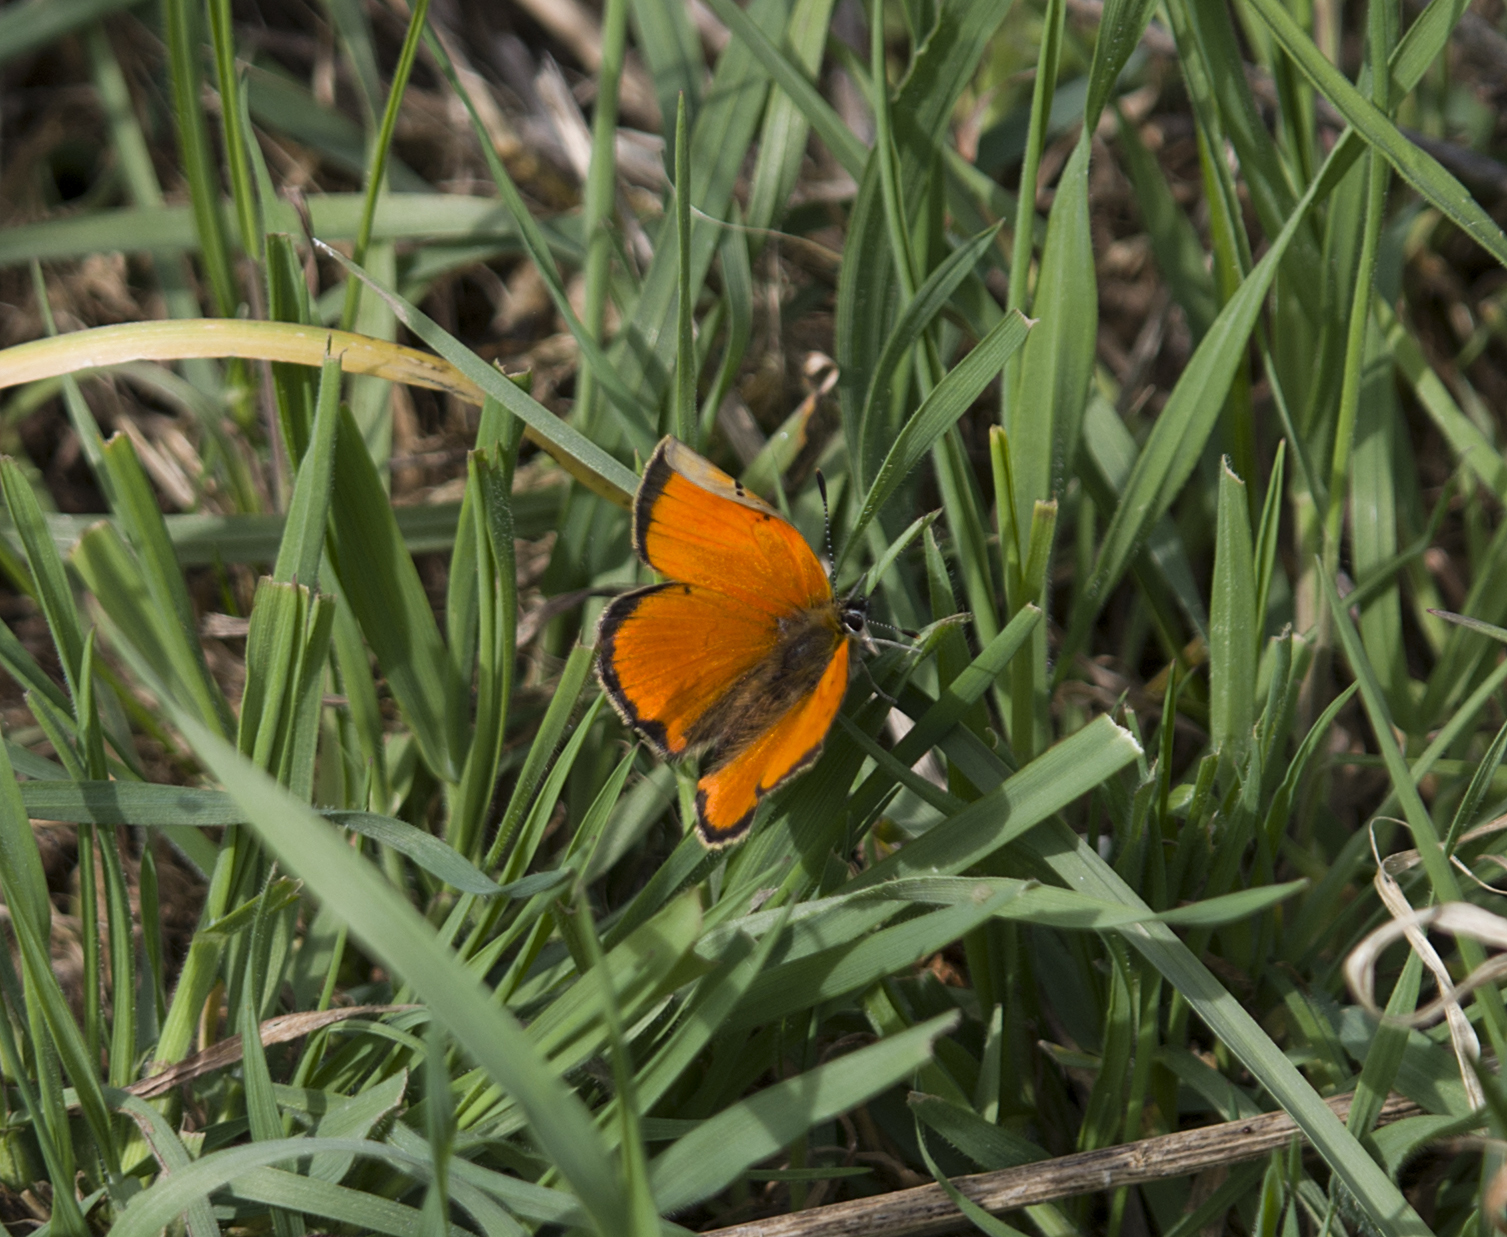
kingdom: Animalia
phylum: Arthropoda
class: Insecta
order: Lepidoptera
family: Lycaenidae
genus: Polyommatus
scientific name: Polyommatus ottomanus
